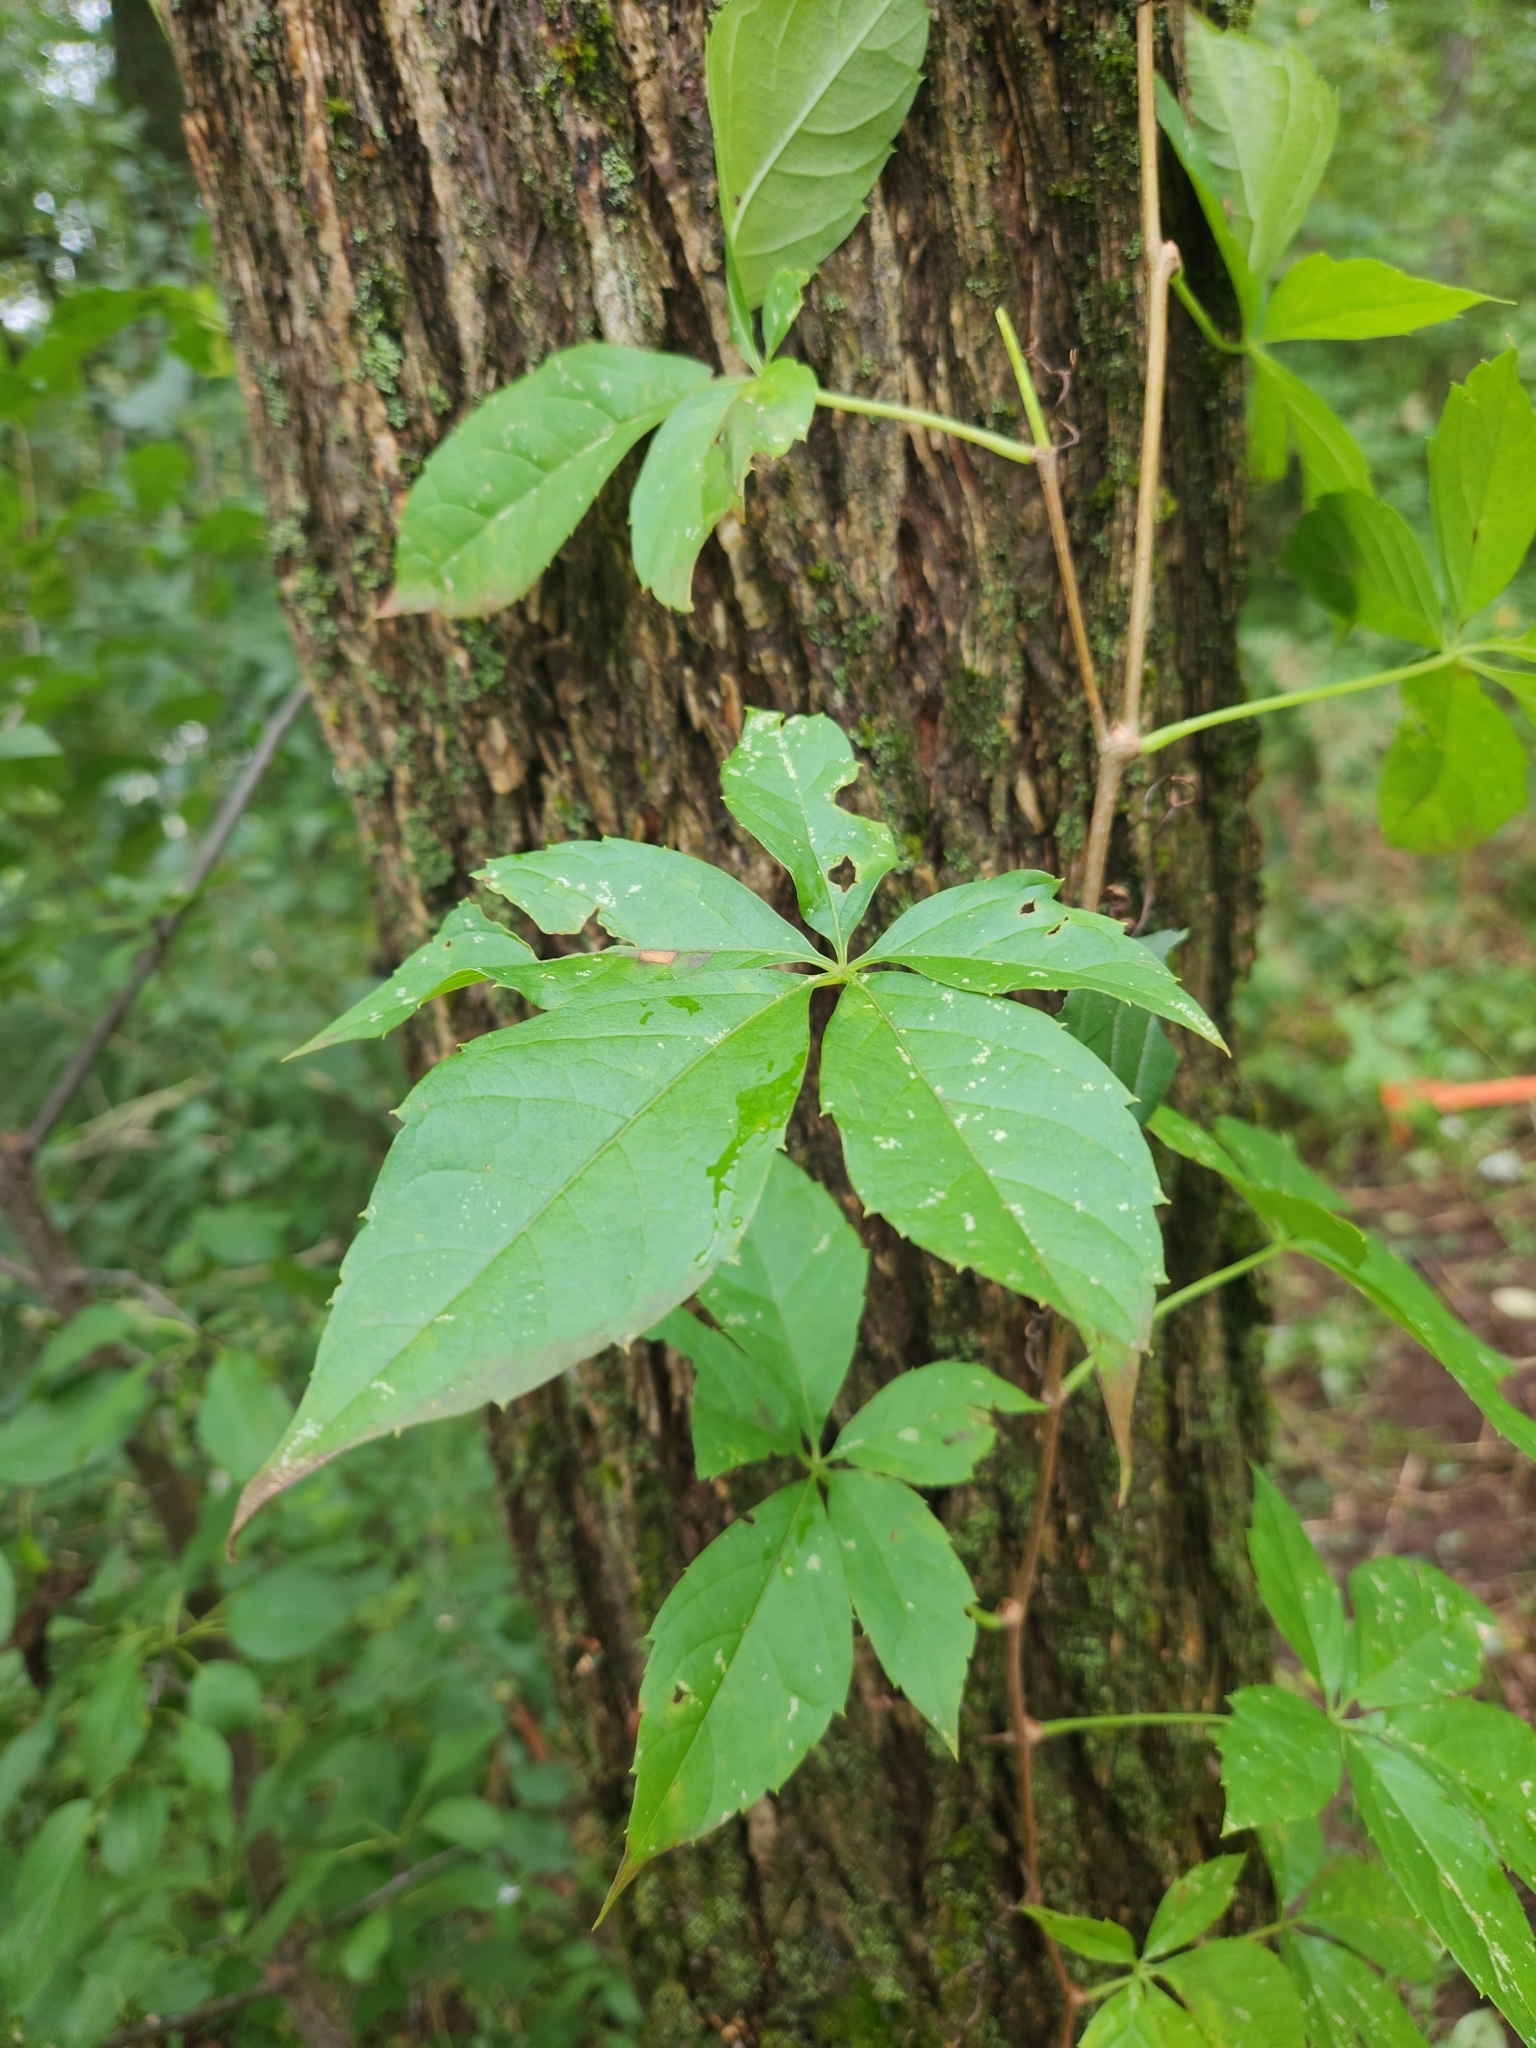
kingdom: Plantae
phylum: Tracheophyta
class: Magnoliopsida
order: Vitales
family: Vitaceae
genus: Parthenocissus
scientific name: Parthenocissus quinquefolia
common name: Virginia-creeper
